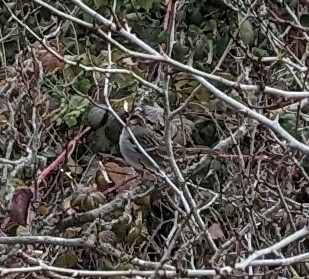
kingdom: Animalia
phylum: Chordata
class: Aves
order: Passeriformes
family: Passerellidae
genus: Zonotrichia
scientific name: Zonotrichia leucophrys
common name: White-crowned sparrow
